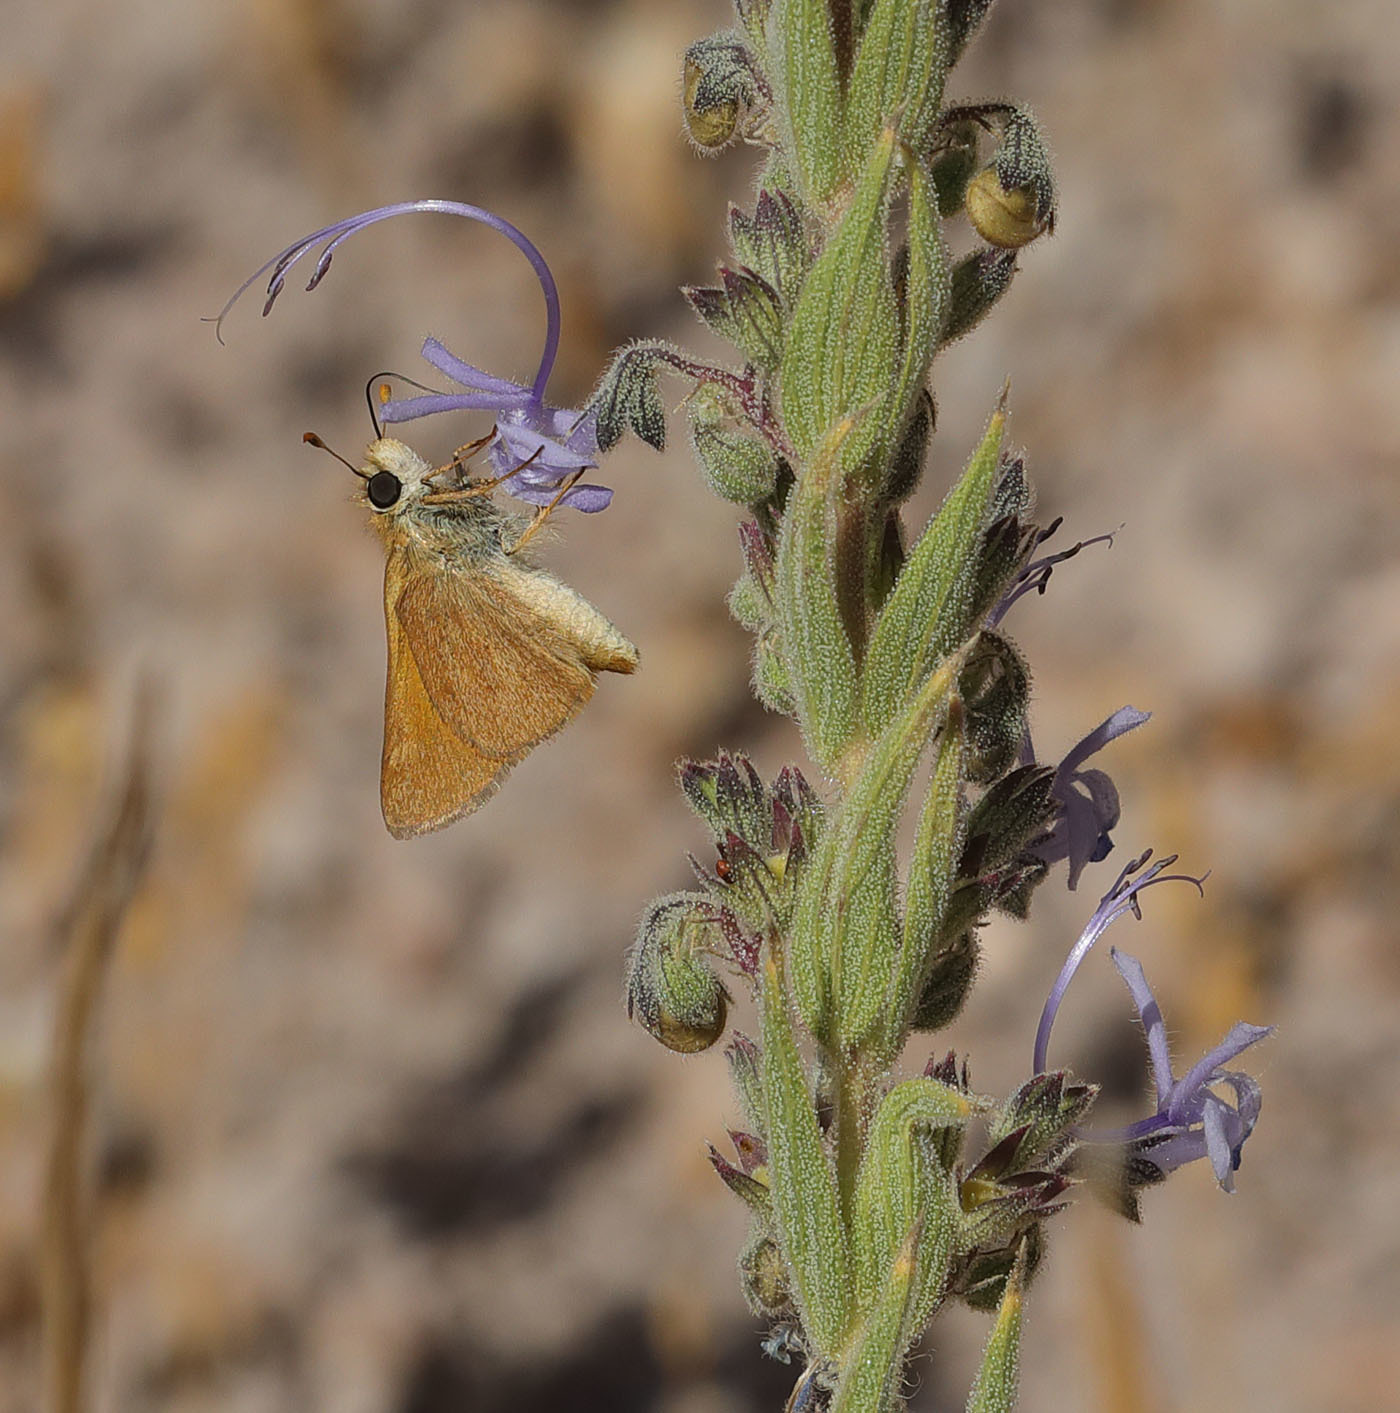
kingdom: Animalia
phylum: Arthropoda
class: Insecta
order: Lepidoptera
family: Hesperiidae
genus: Ochlodes
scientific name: Ochlodes sylvanoides
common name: Woodland skipper
